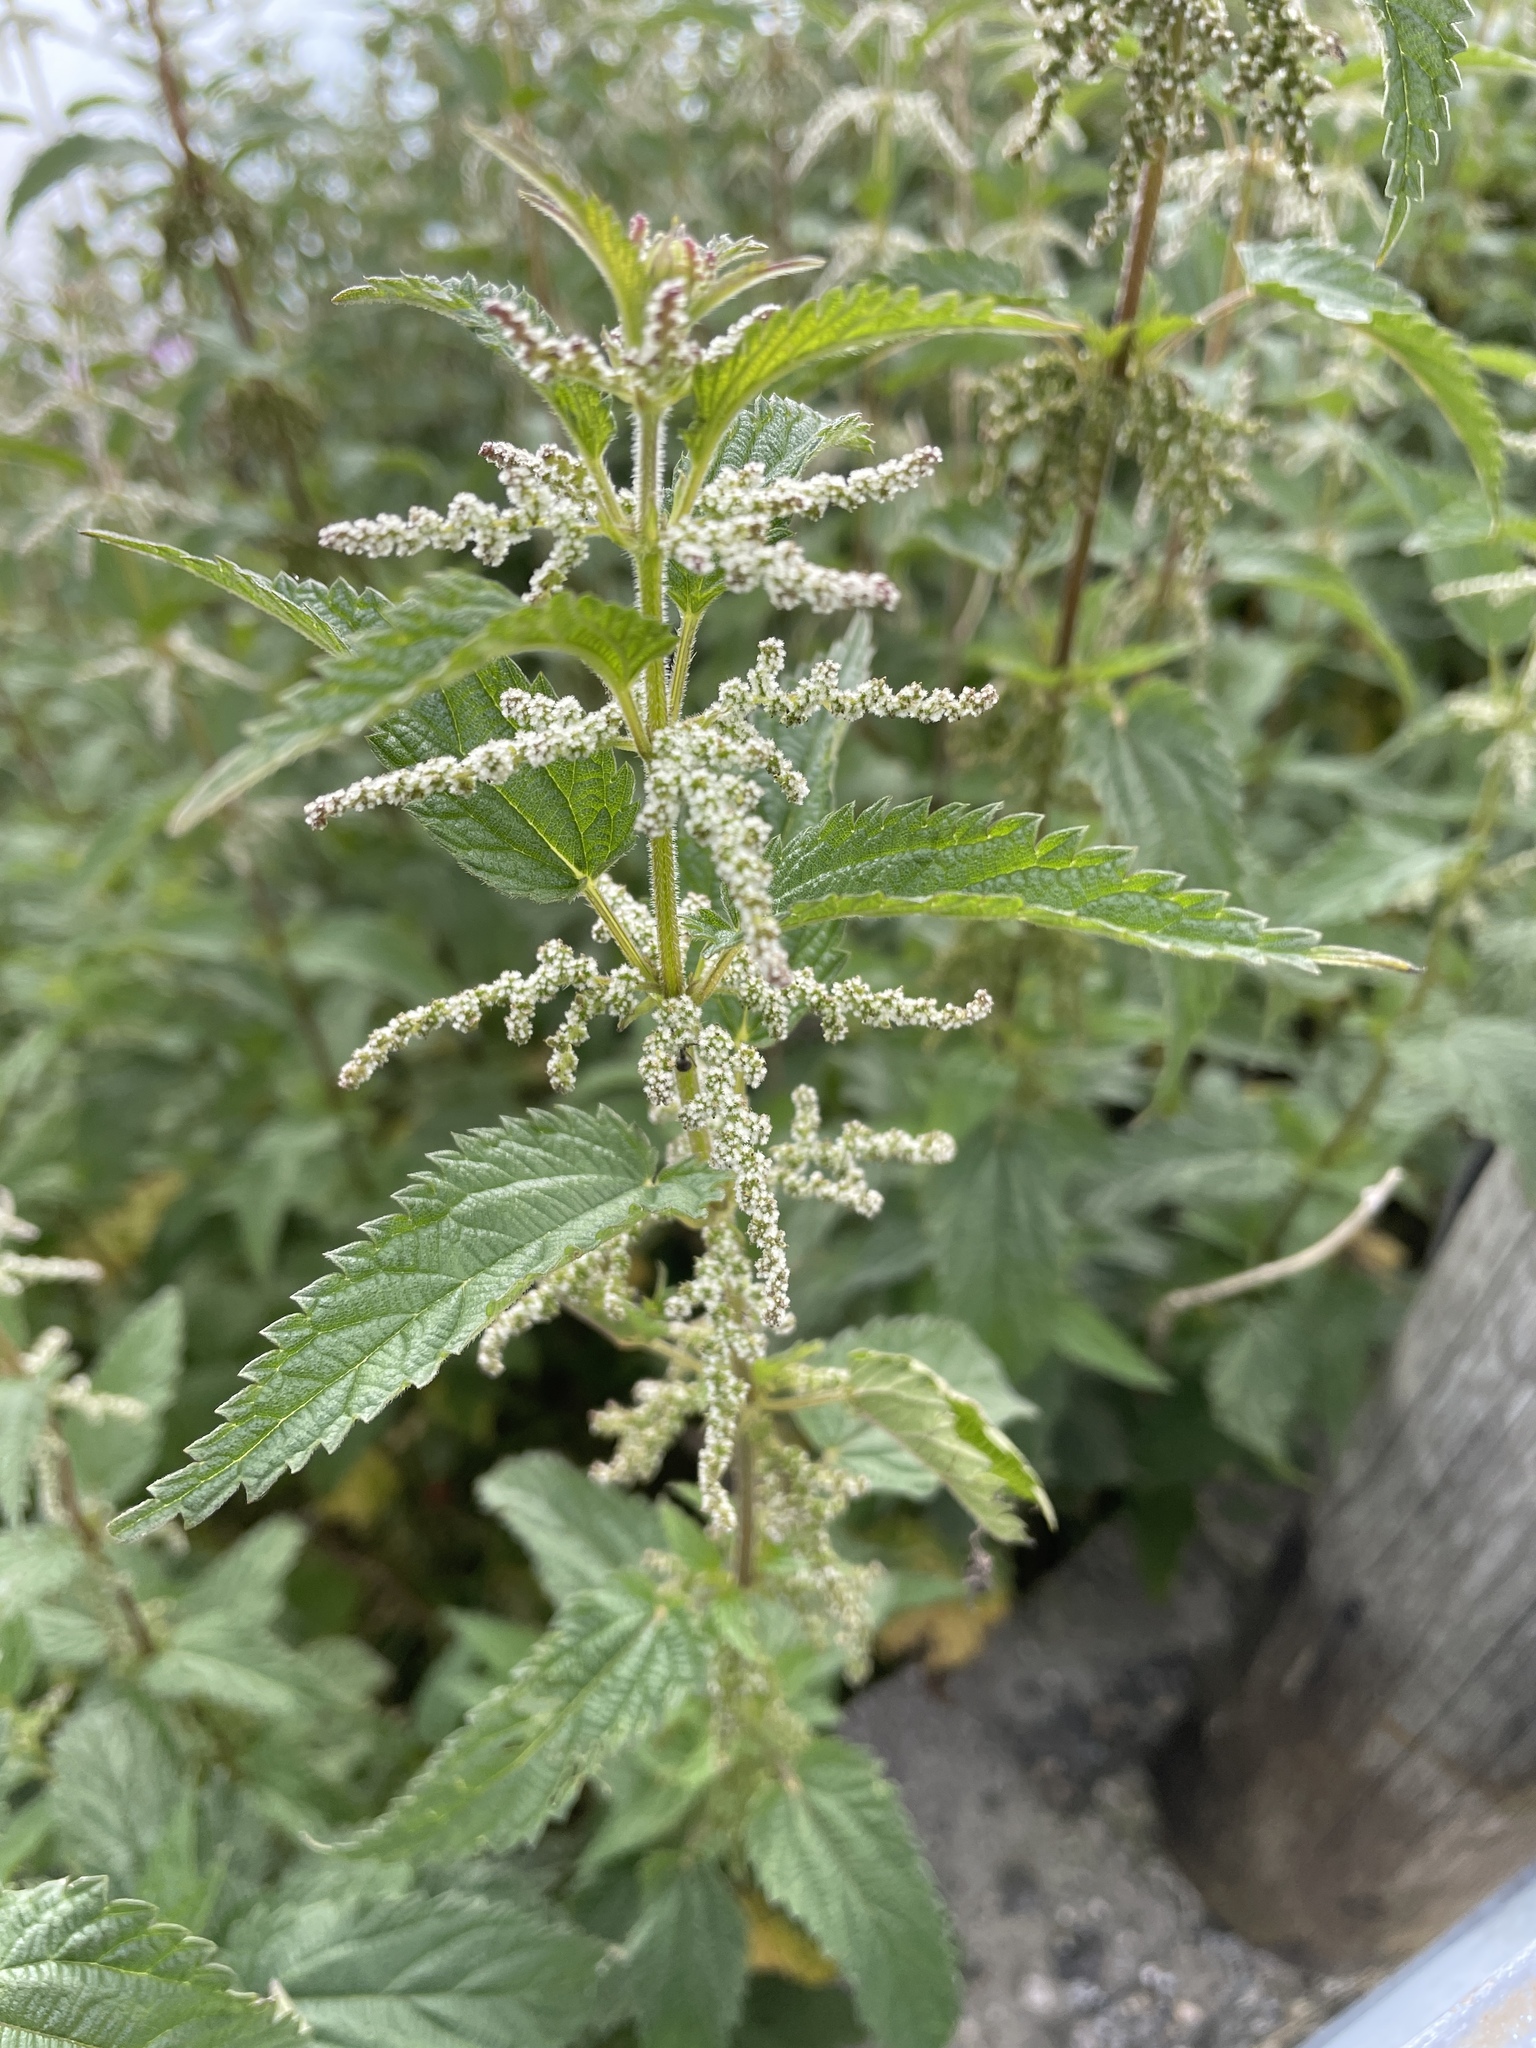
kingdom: Plantae
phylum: Tracheophyta
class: Magnoliopsida
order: Rosales
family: Urticaceae
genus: Urtica
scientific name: Urtica dioica
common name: Common nettle
